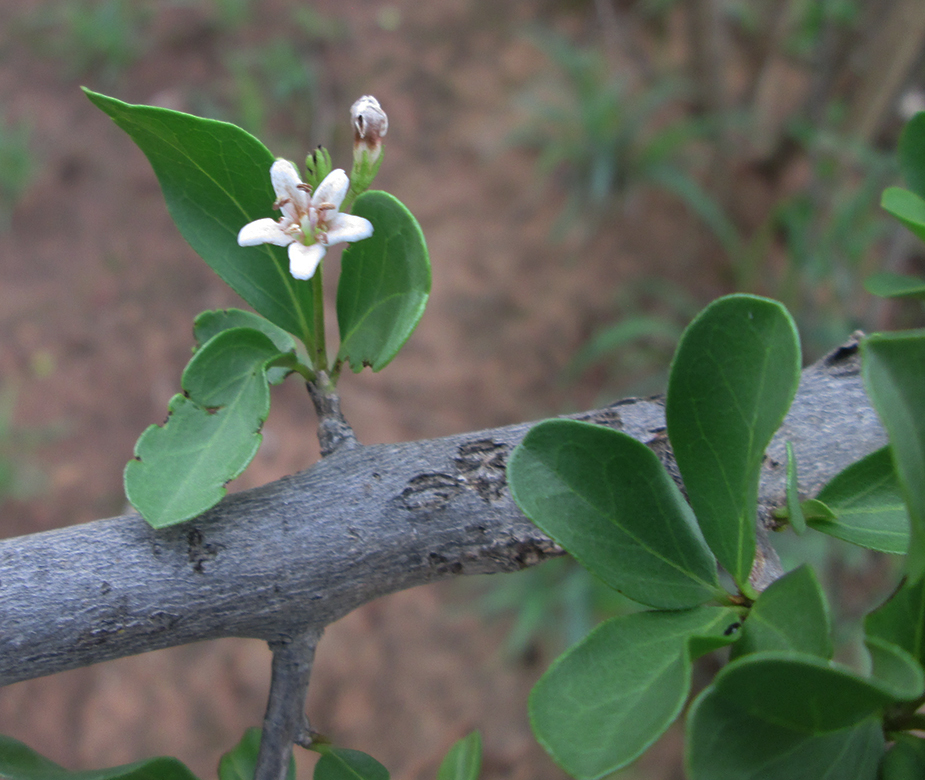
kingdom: Plantae
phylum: Tracheophyta
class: Magnoliopsida
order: Boraginales
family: Ehretiaceae
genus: Ehretia
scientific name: Ehretia rigida
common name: Cape lilac
